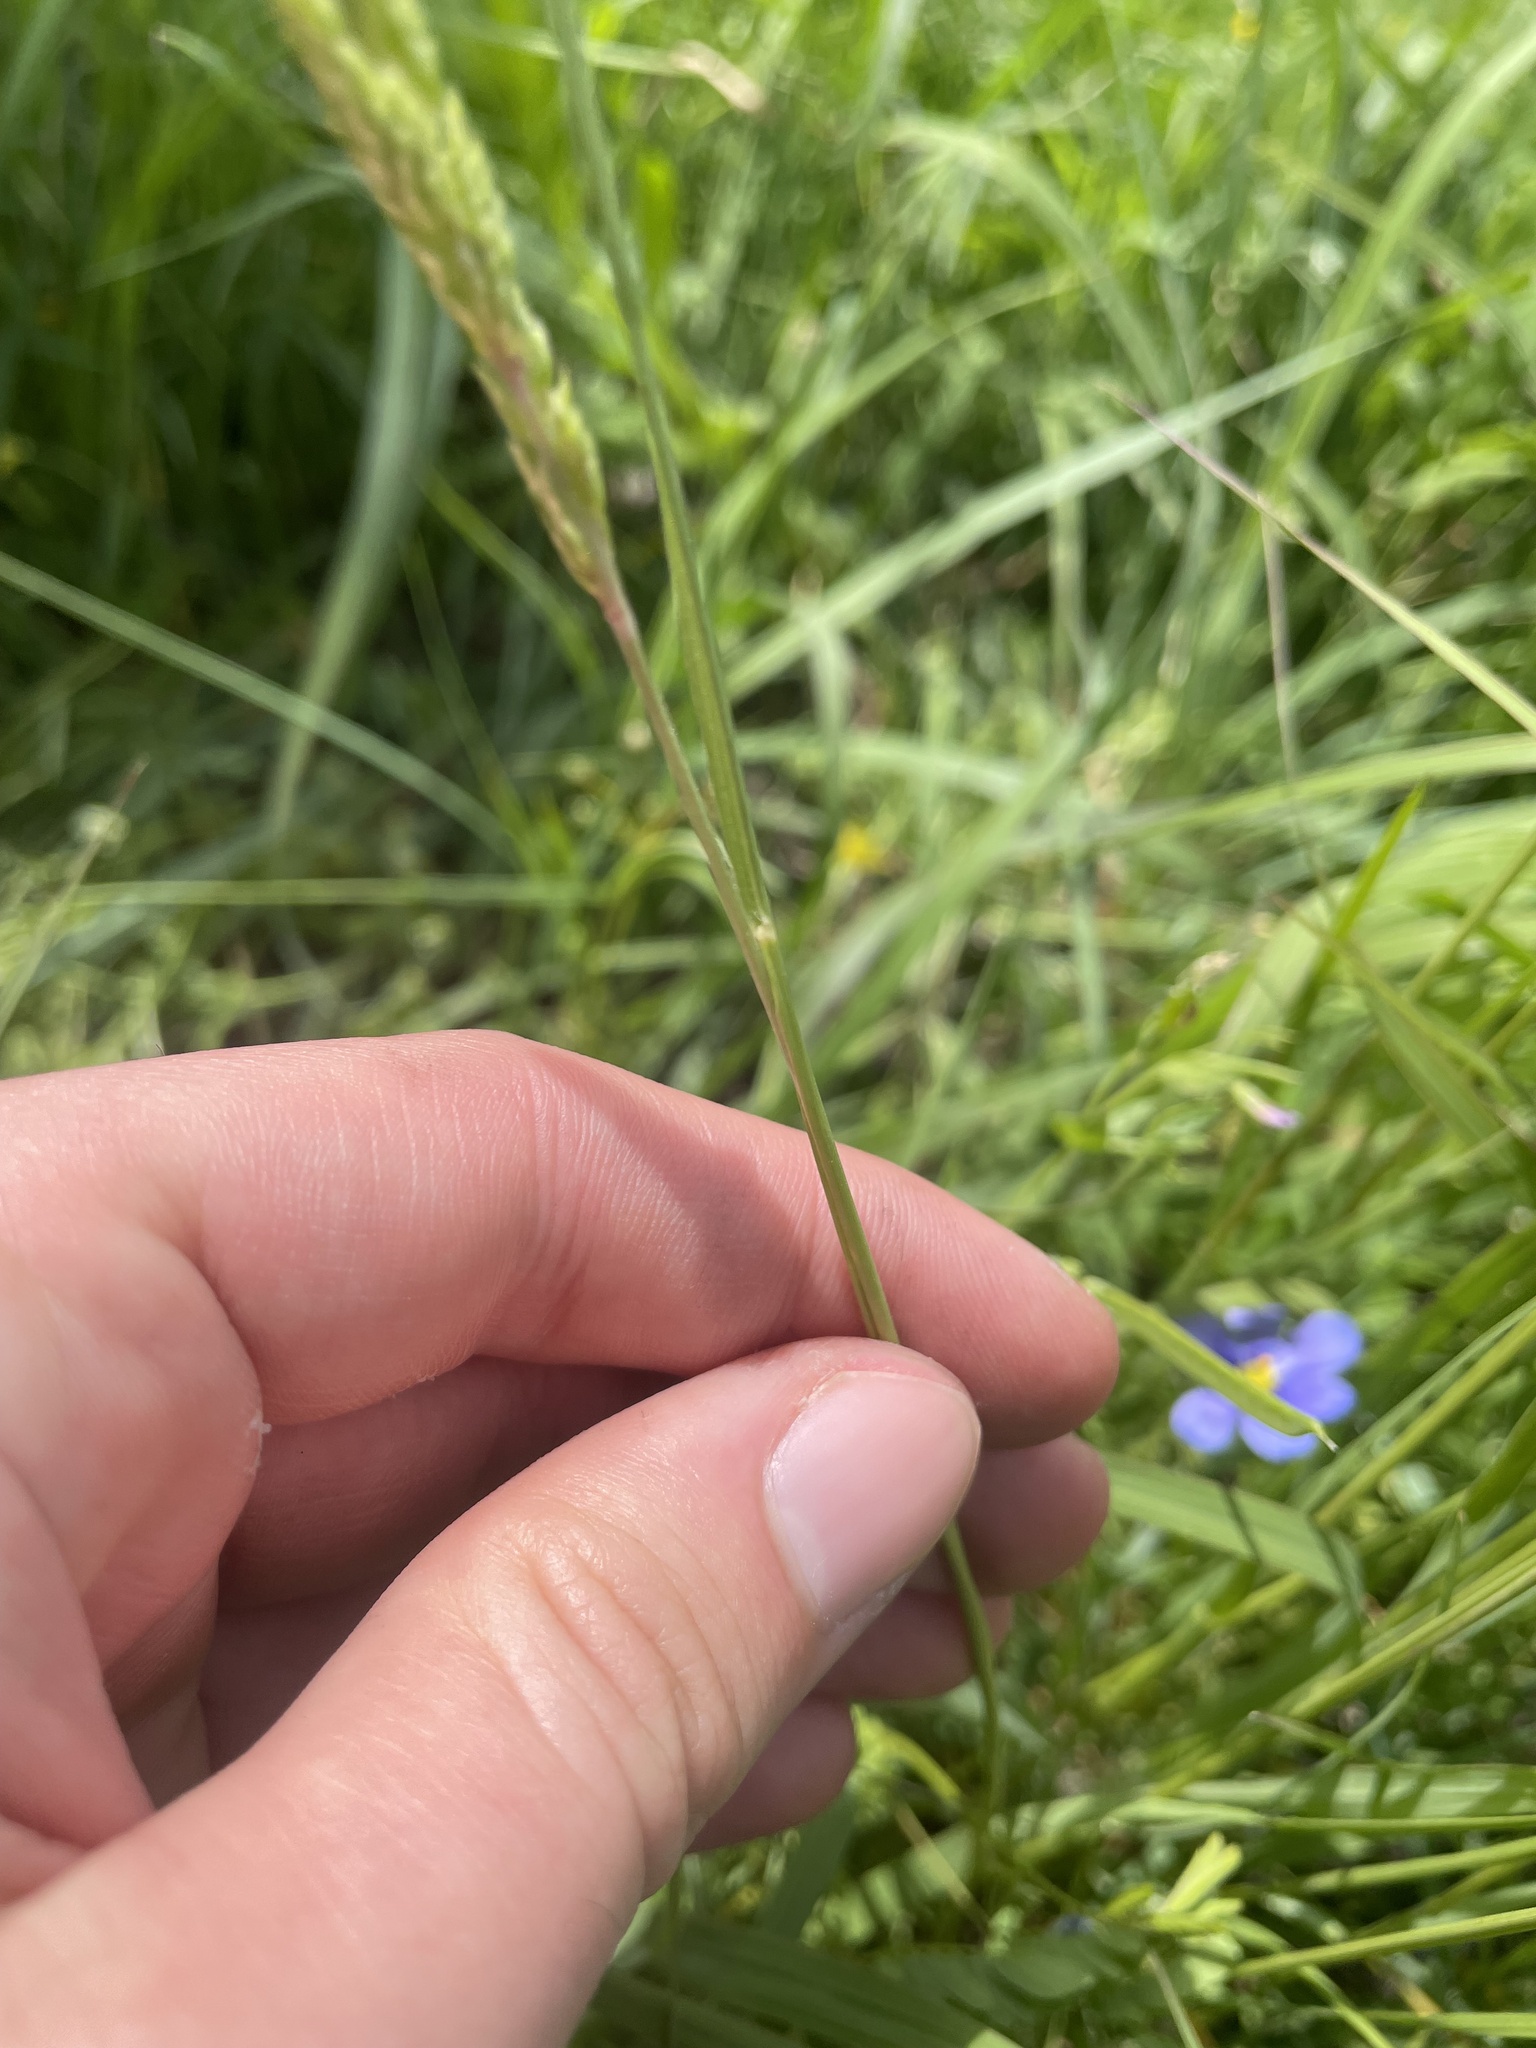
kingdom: Plantae
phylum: Tracheophyta
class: Liliopsida
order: Poales
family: Poaceae
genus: Sphenopholis
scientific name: Sphenopholis obtusata
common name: Prairie grass
